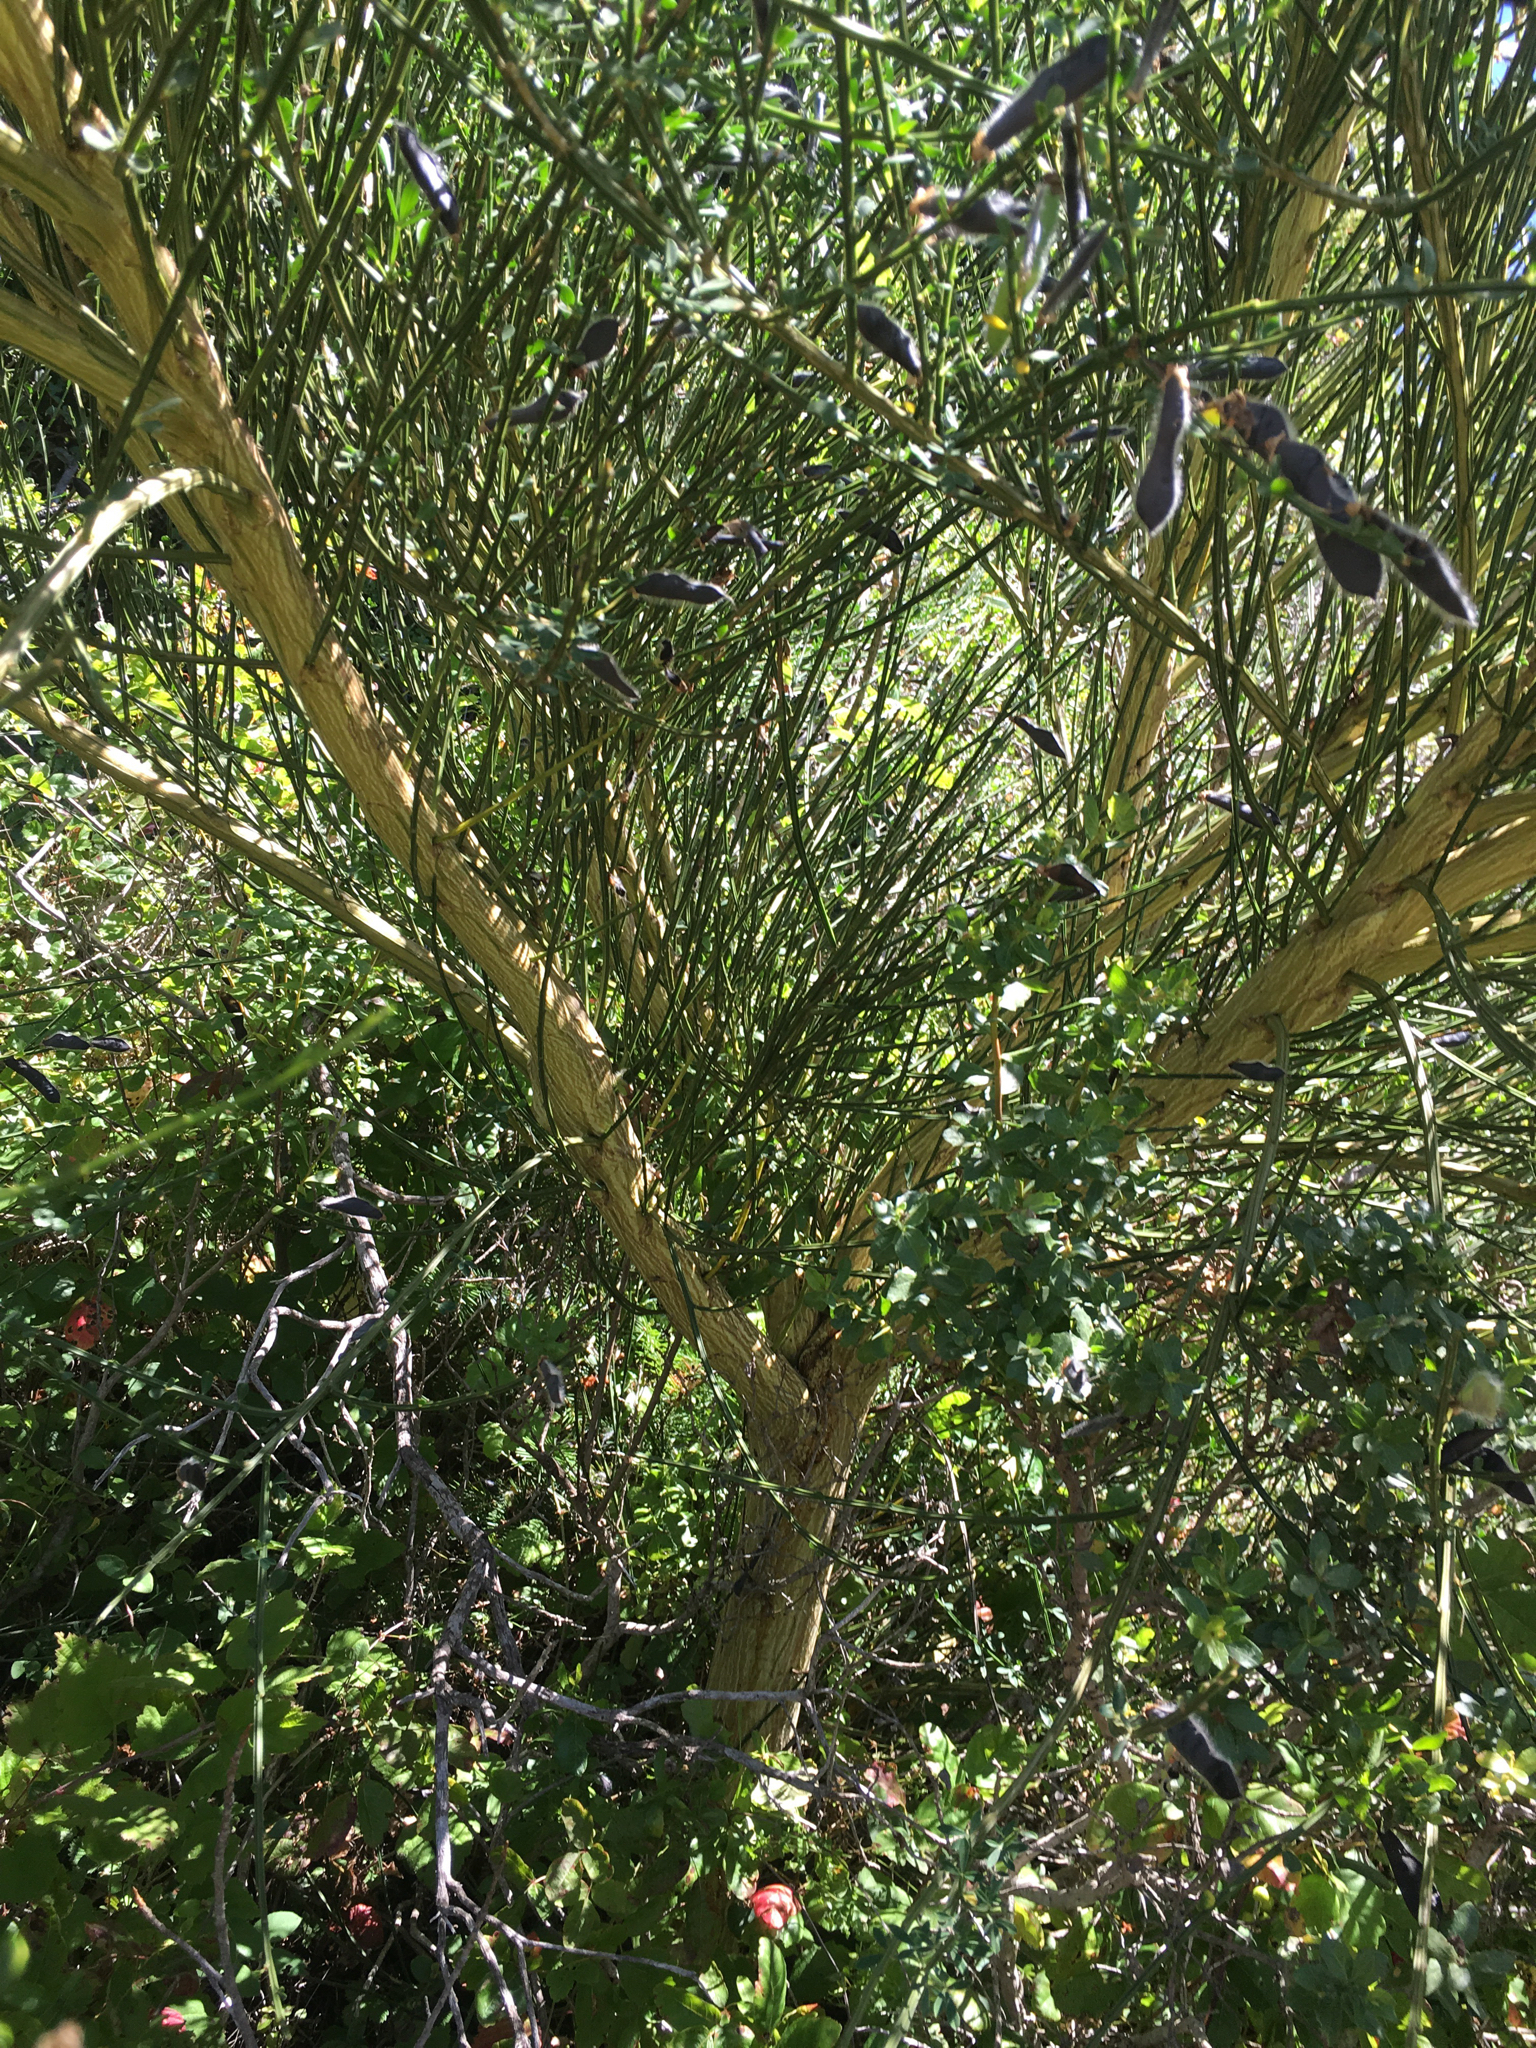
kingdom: Plantae
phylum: Tracheophyta
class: Magnoliopsida
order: Fabales
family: Fabaceae
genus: Cytisus
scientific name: Cytisus scoparius
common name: Scotch broom
